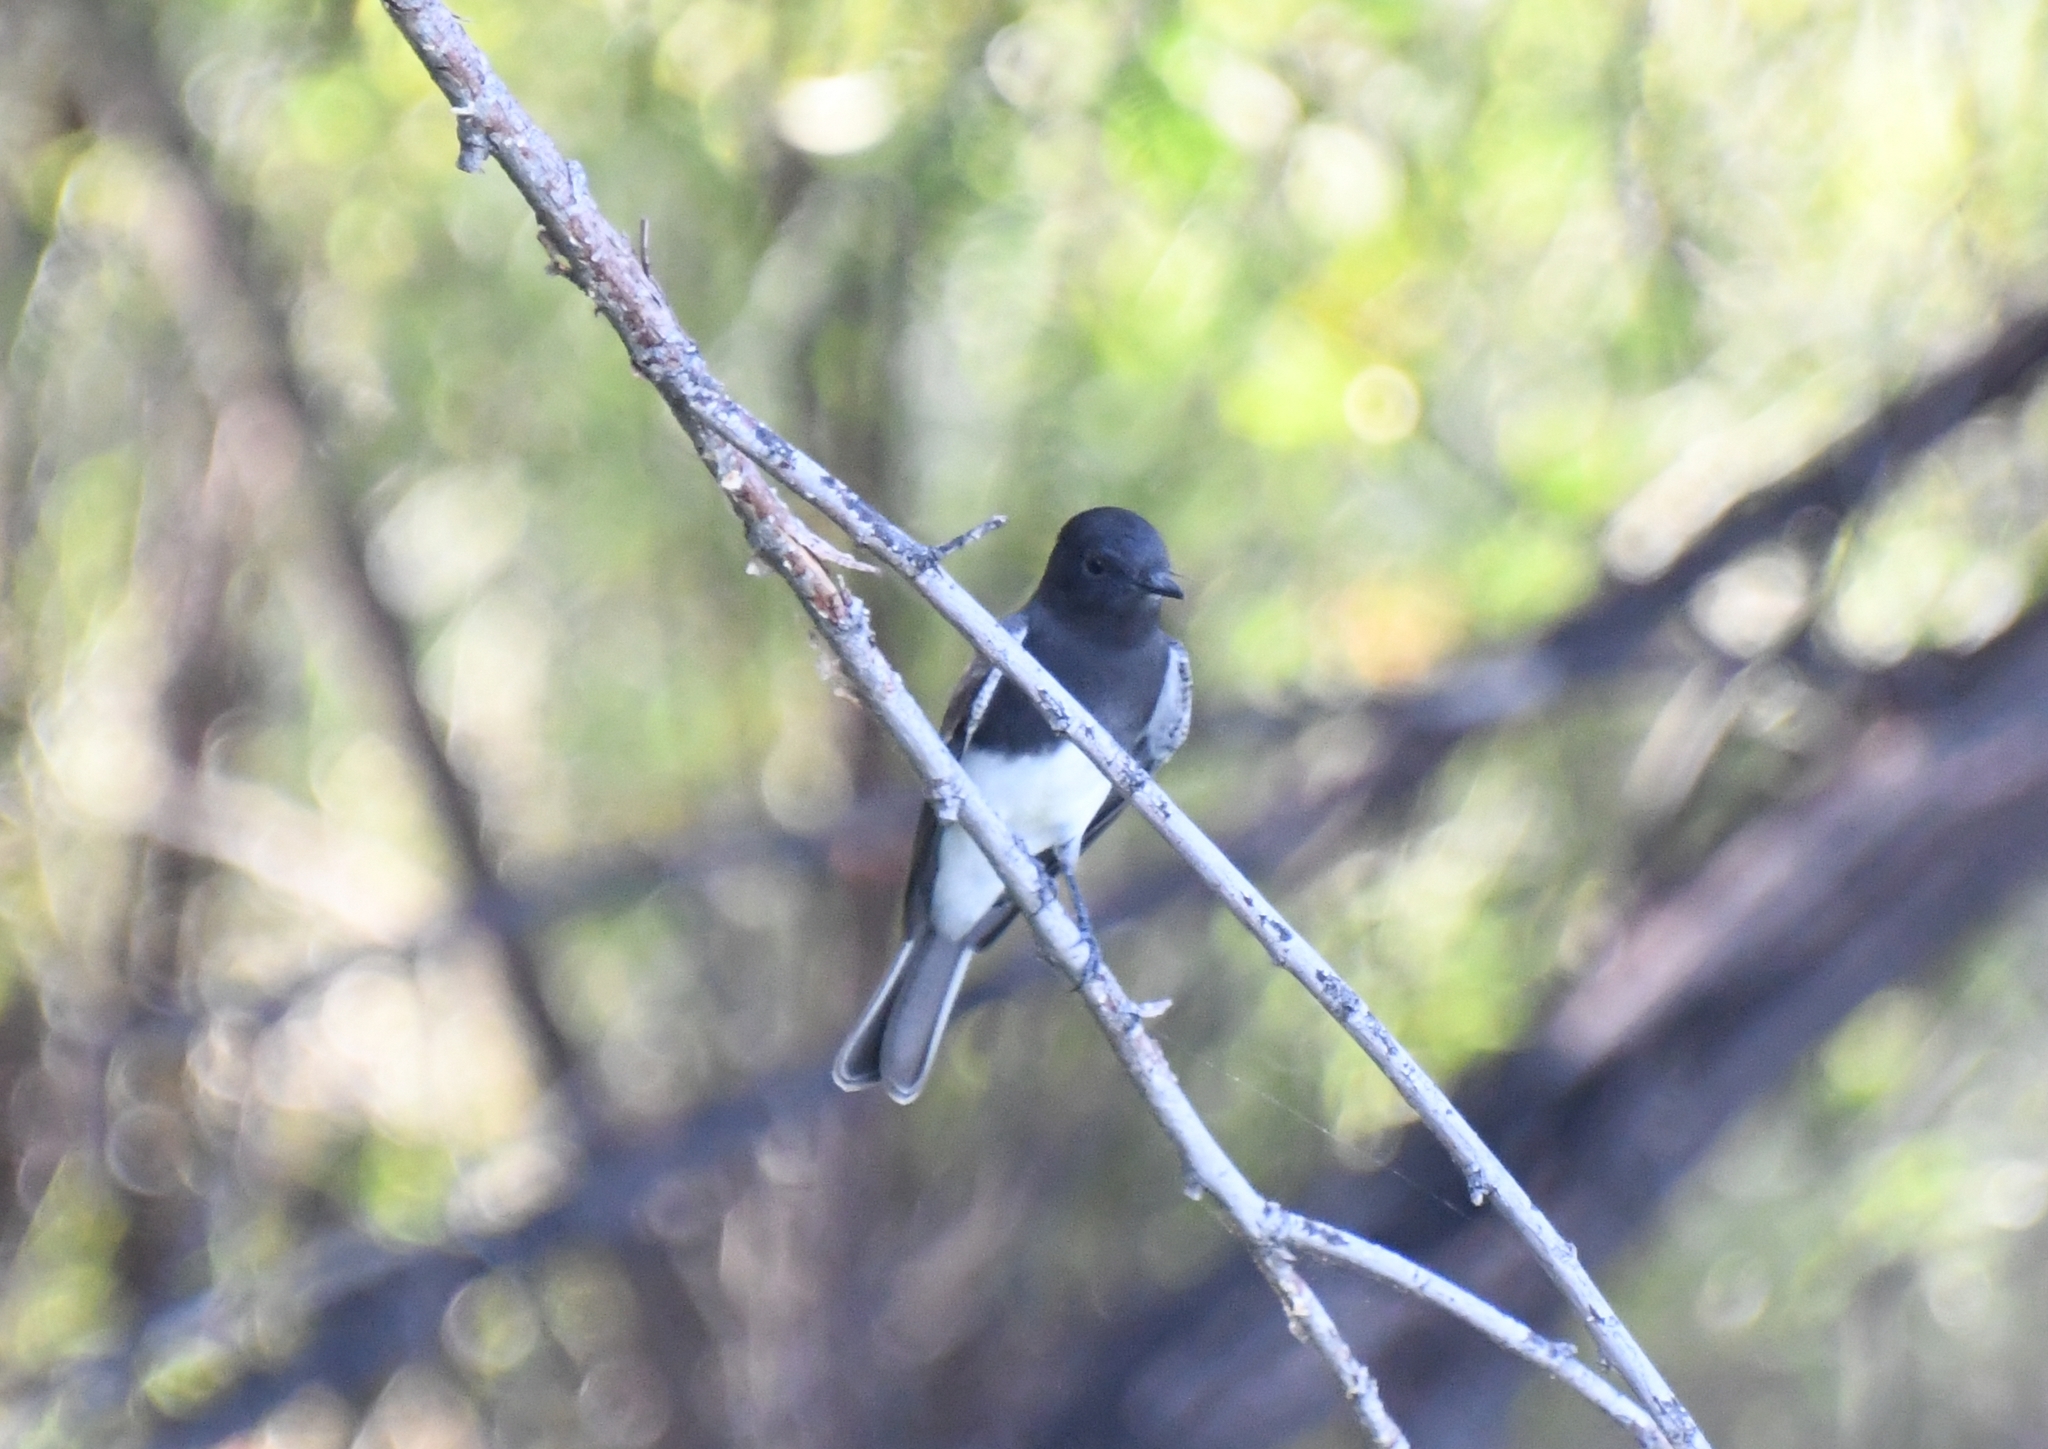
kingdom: Animalia
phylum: Chordata
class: Aves
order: Passeriformes
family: Tyrannidae
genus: Sayornis
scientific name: Sayornis nigricans
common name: Black phoebe
